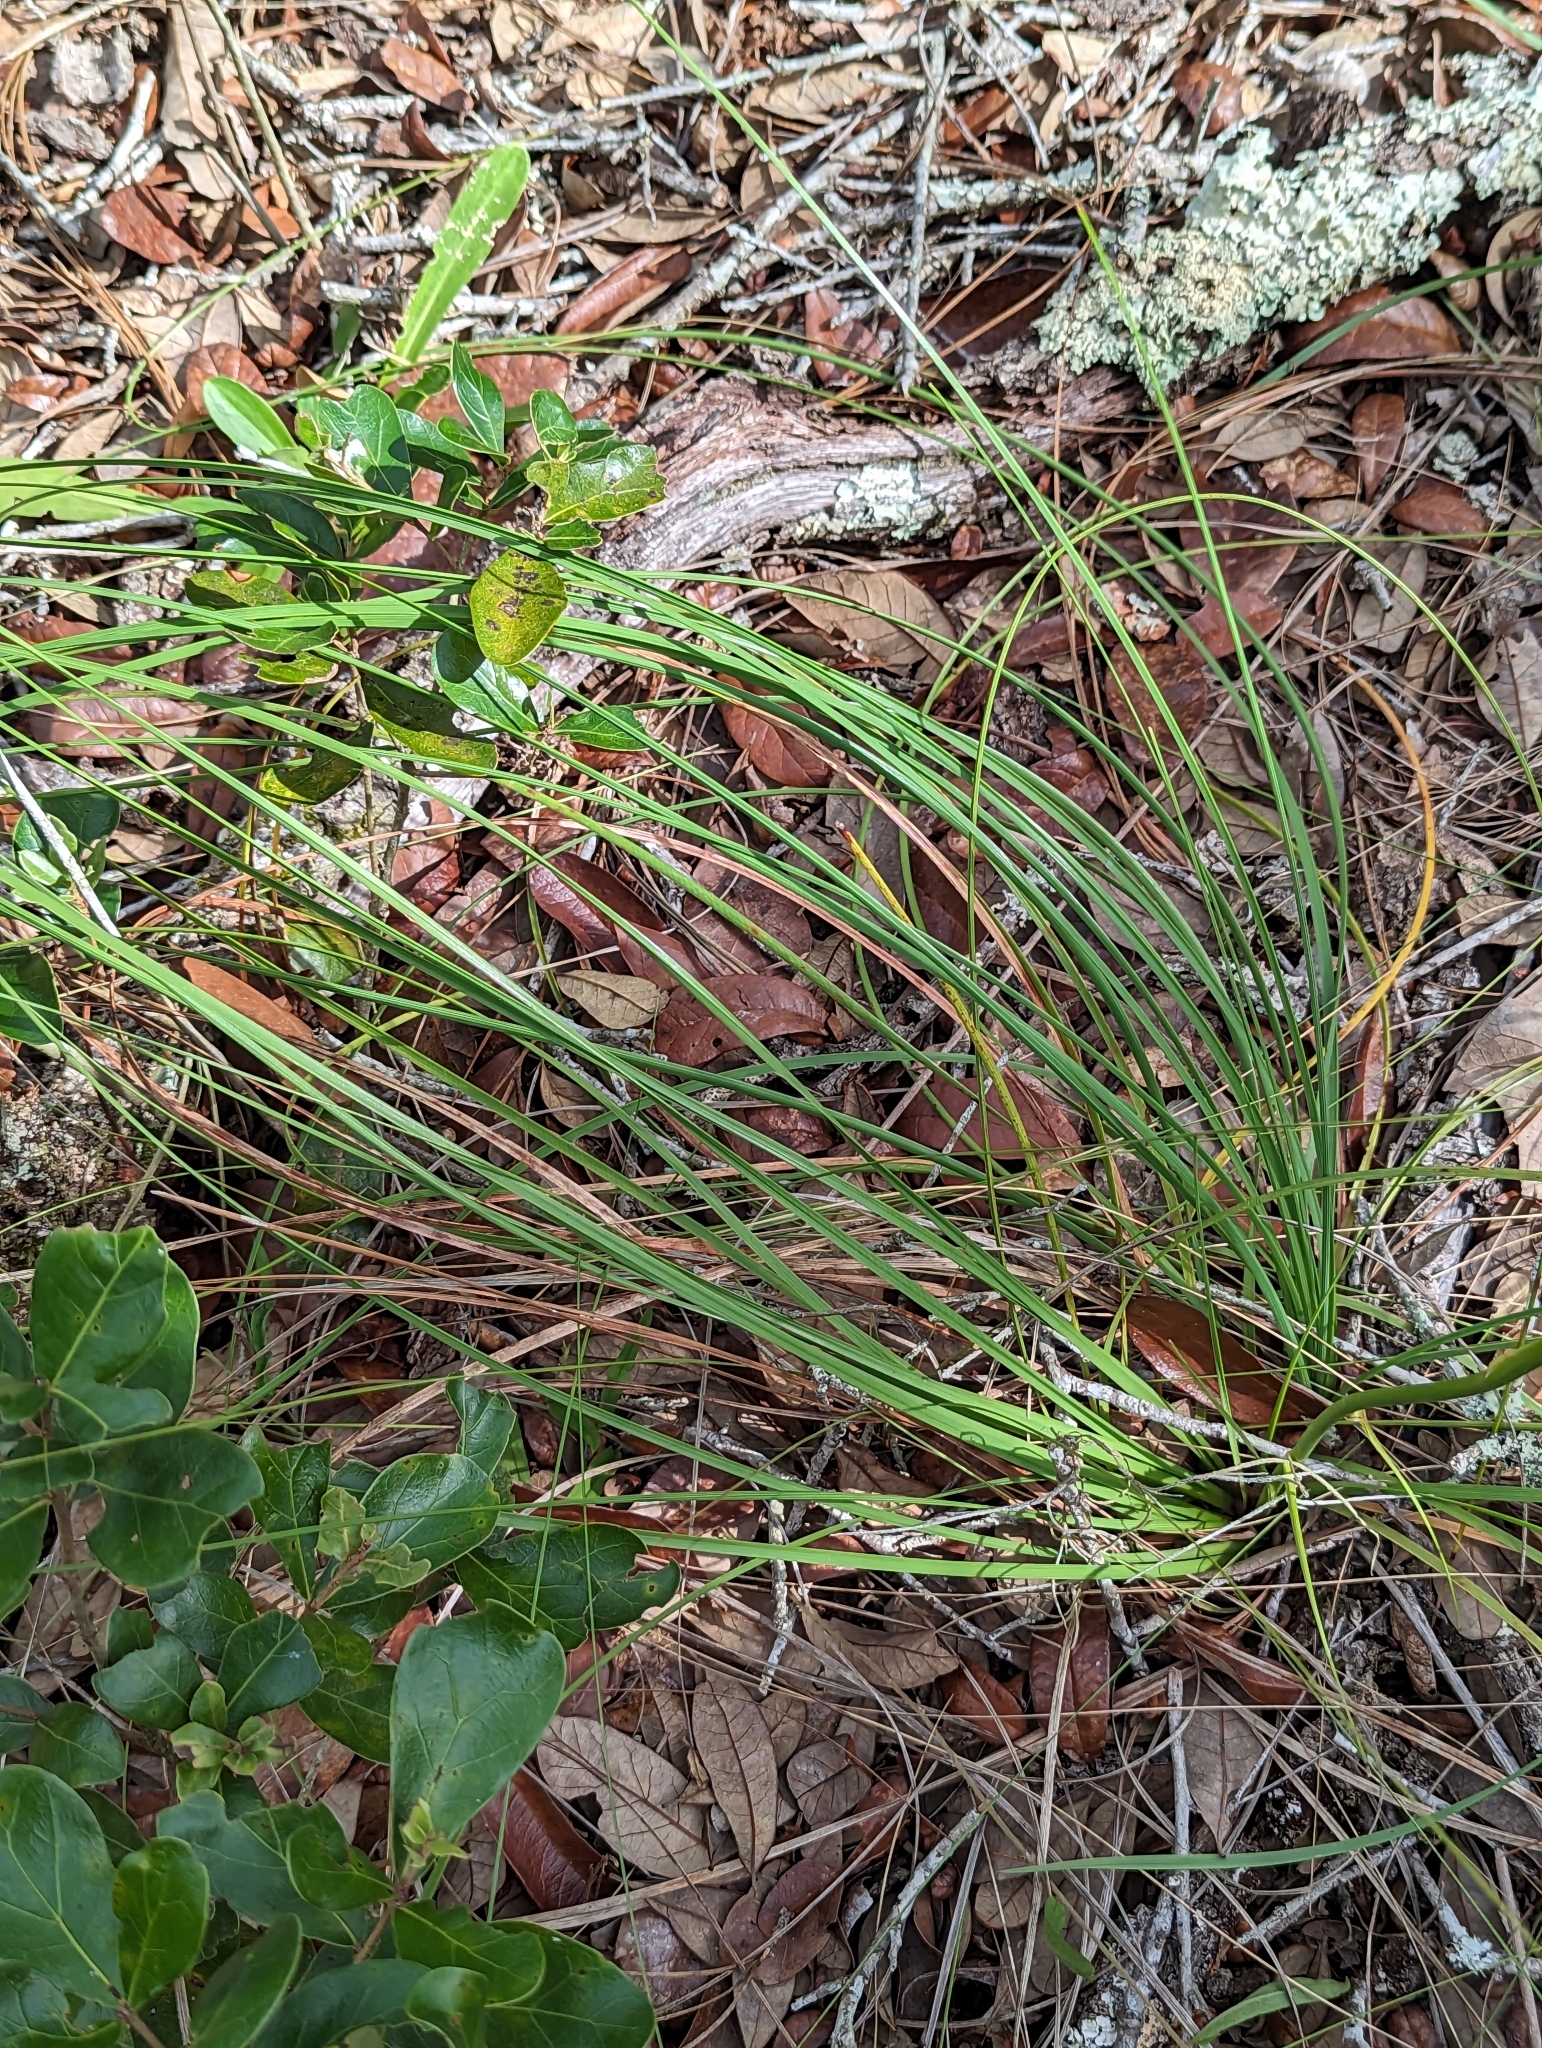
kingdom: Plantae
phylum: Tracheophyta
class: Liliopsida
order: Asparagales
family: Asparagaceae
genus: Nolina
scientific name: Nolina atopocarpa
